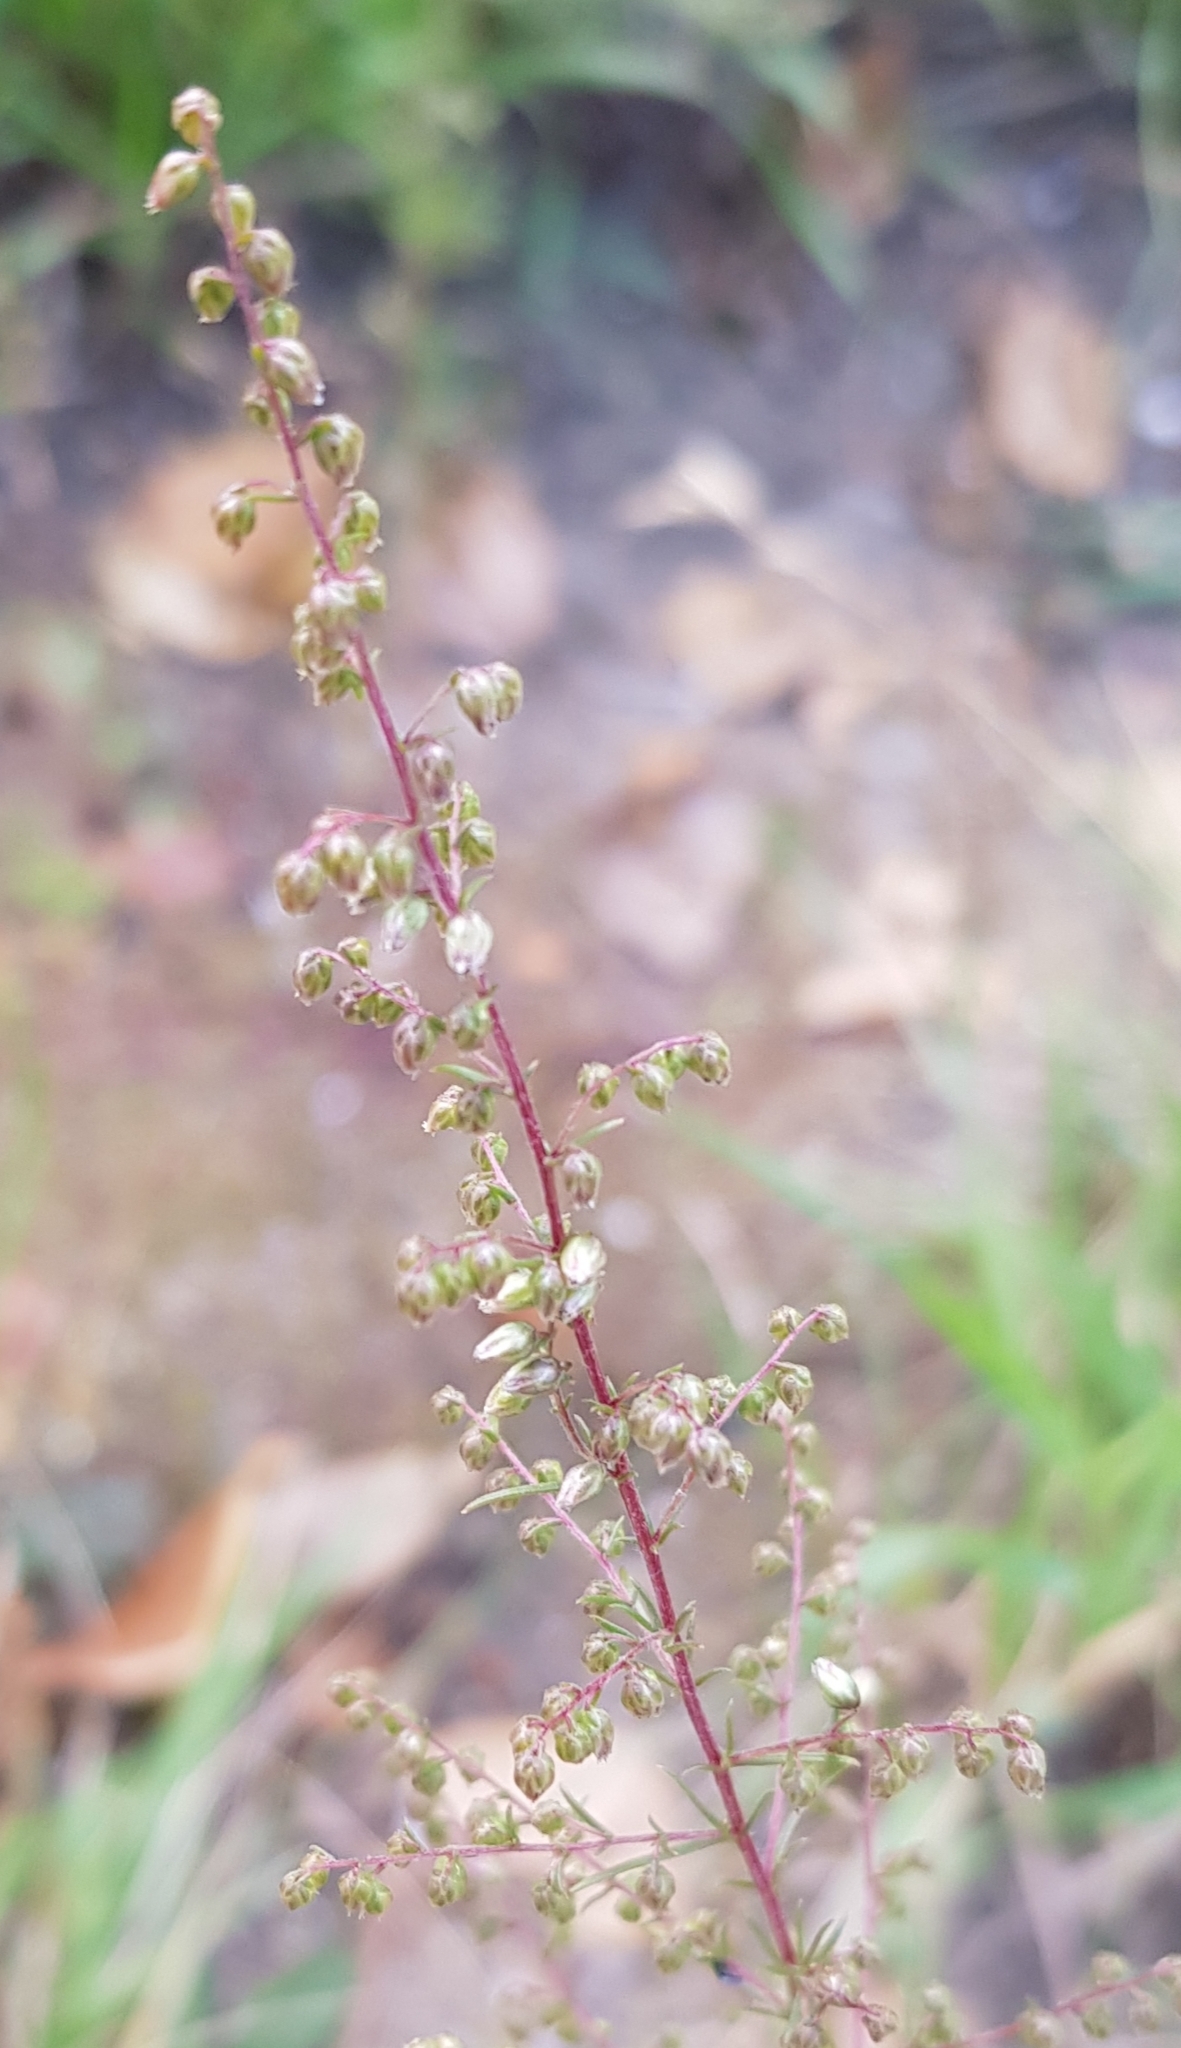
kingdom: Plantae
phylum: Tracheophyta
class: Magnoliopsida
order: Asterales
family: Asteraceae
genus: Artemisia
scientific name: Artemisia scoparia
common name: Redstem wormwood
